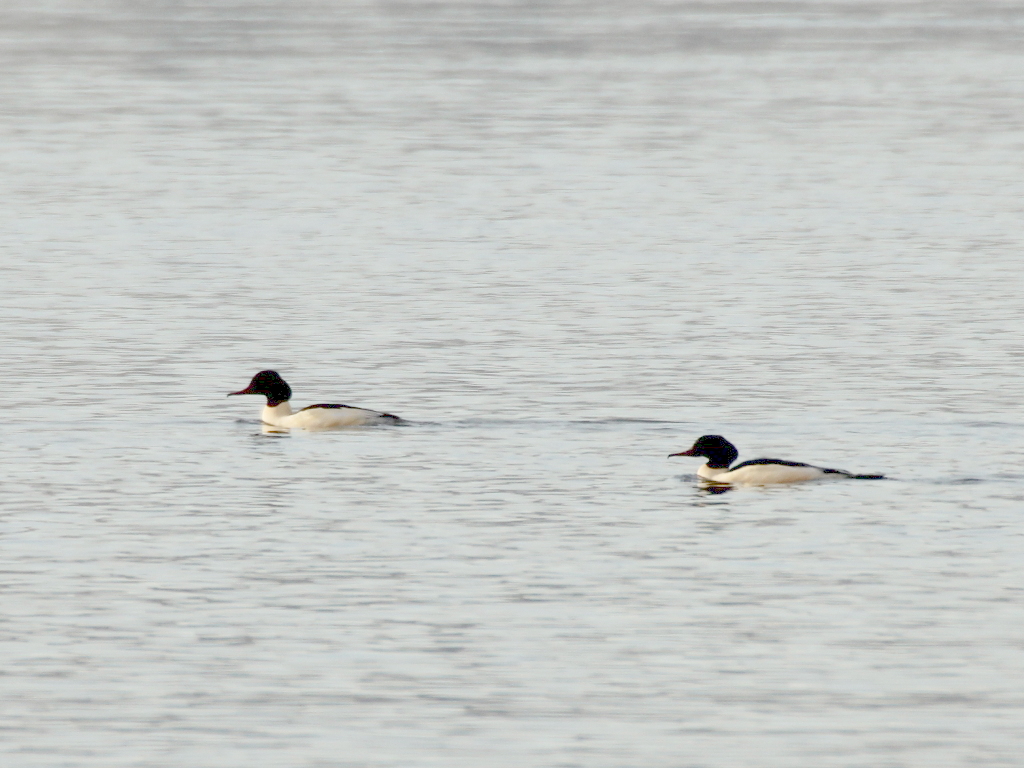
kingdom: Animalia
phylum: Chordata
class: Aves
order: Anseriformes
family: Anatidae
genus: Mergus
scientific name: Mergus merganser
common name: Common merganser
